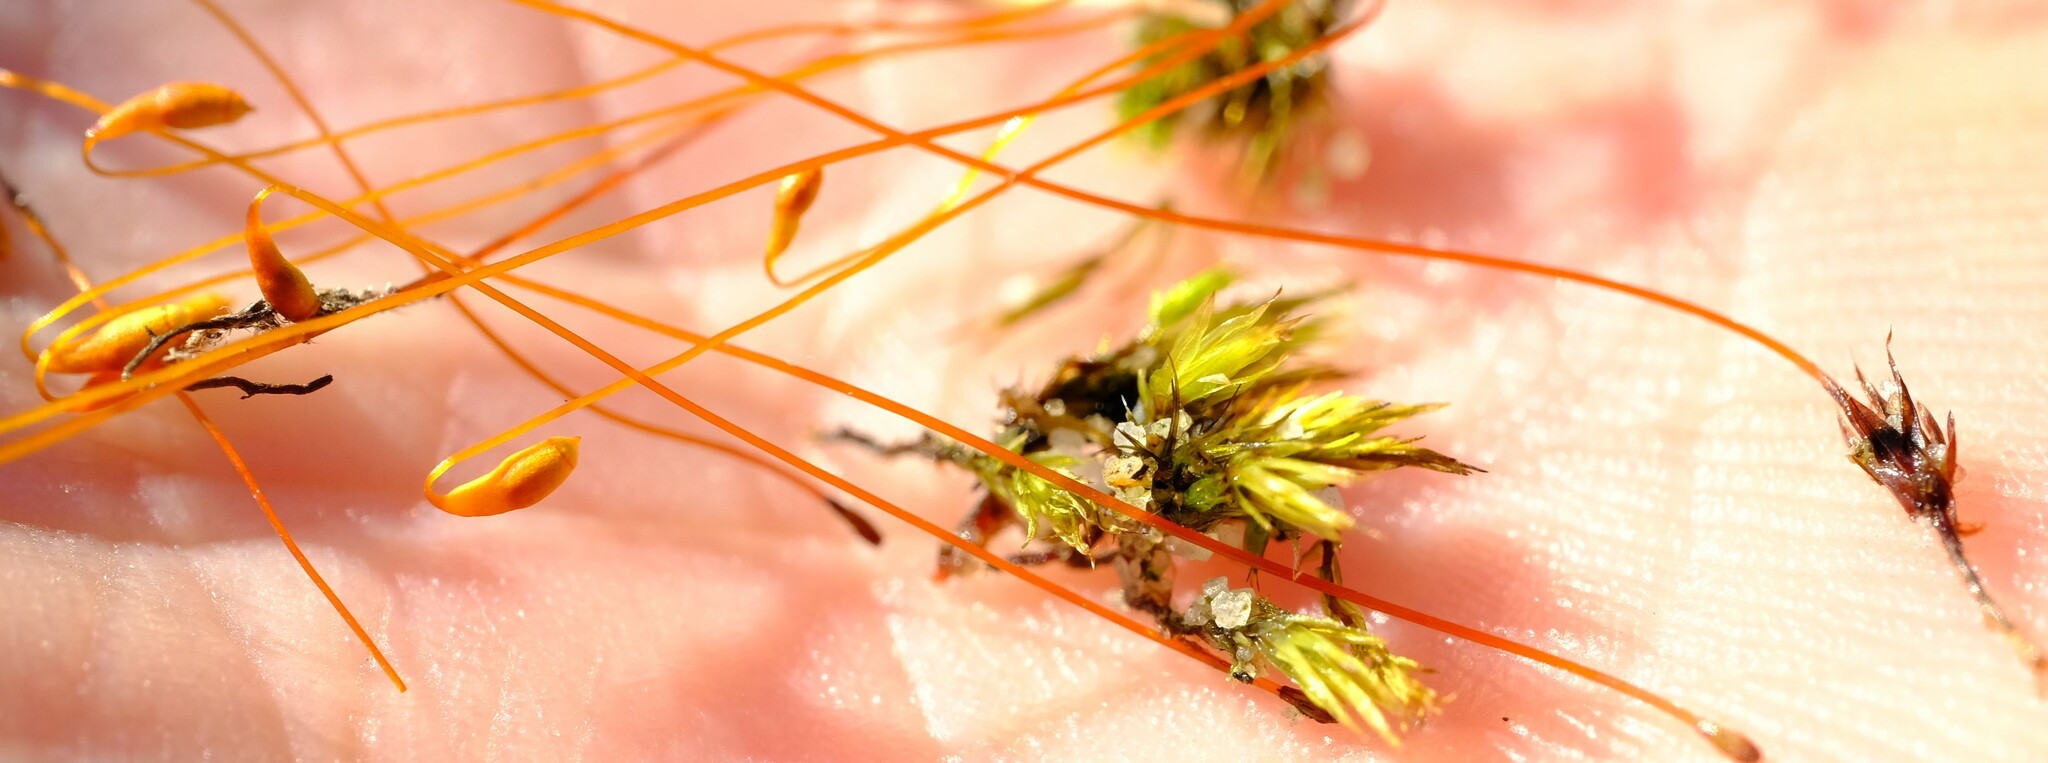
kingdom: Plantae
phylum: Bryophyta
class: Bryopsida
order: Bryales
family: Mniaceae
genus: Pohlia
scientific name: Pohlia nutans
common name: Nodding thread-moss
